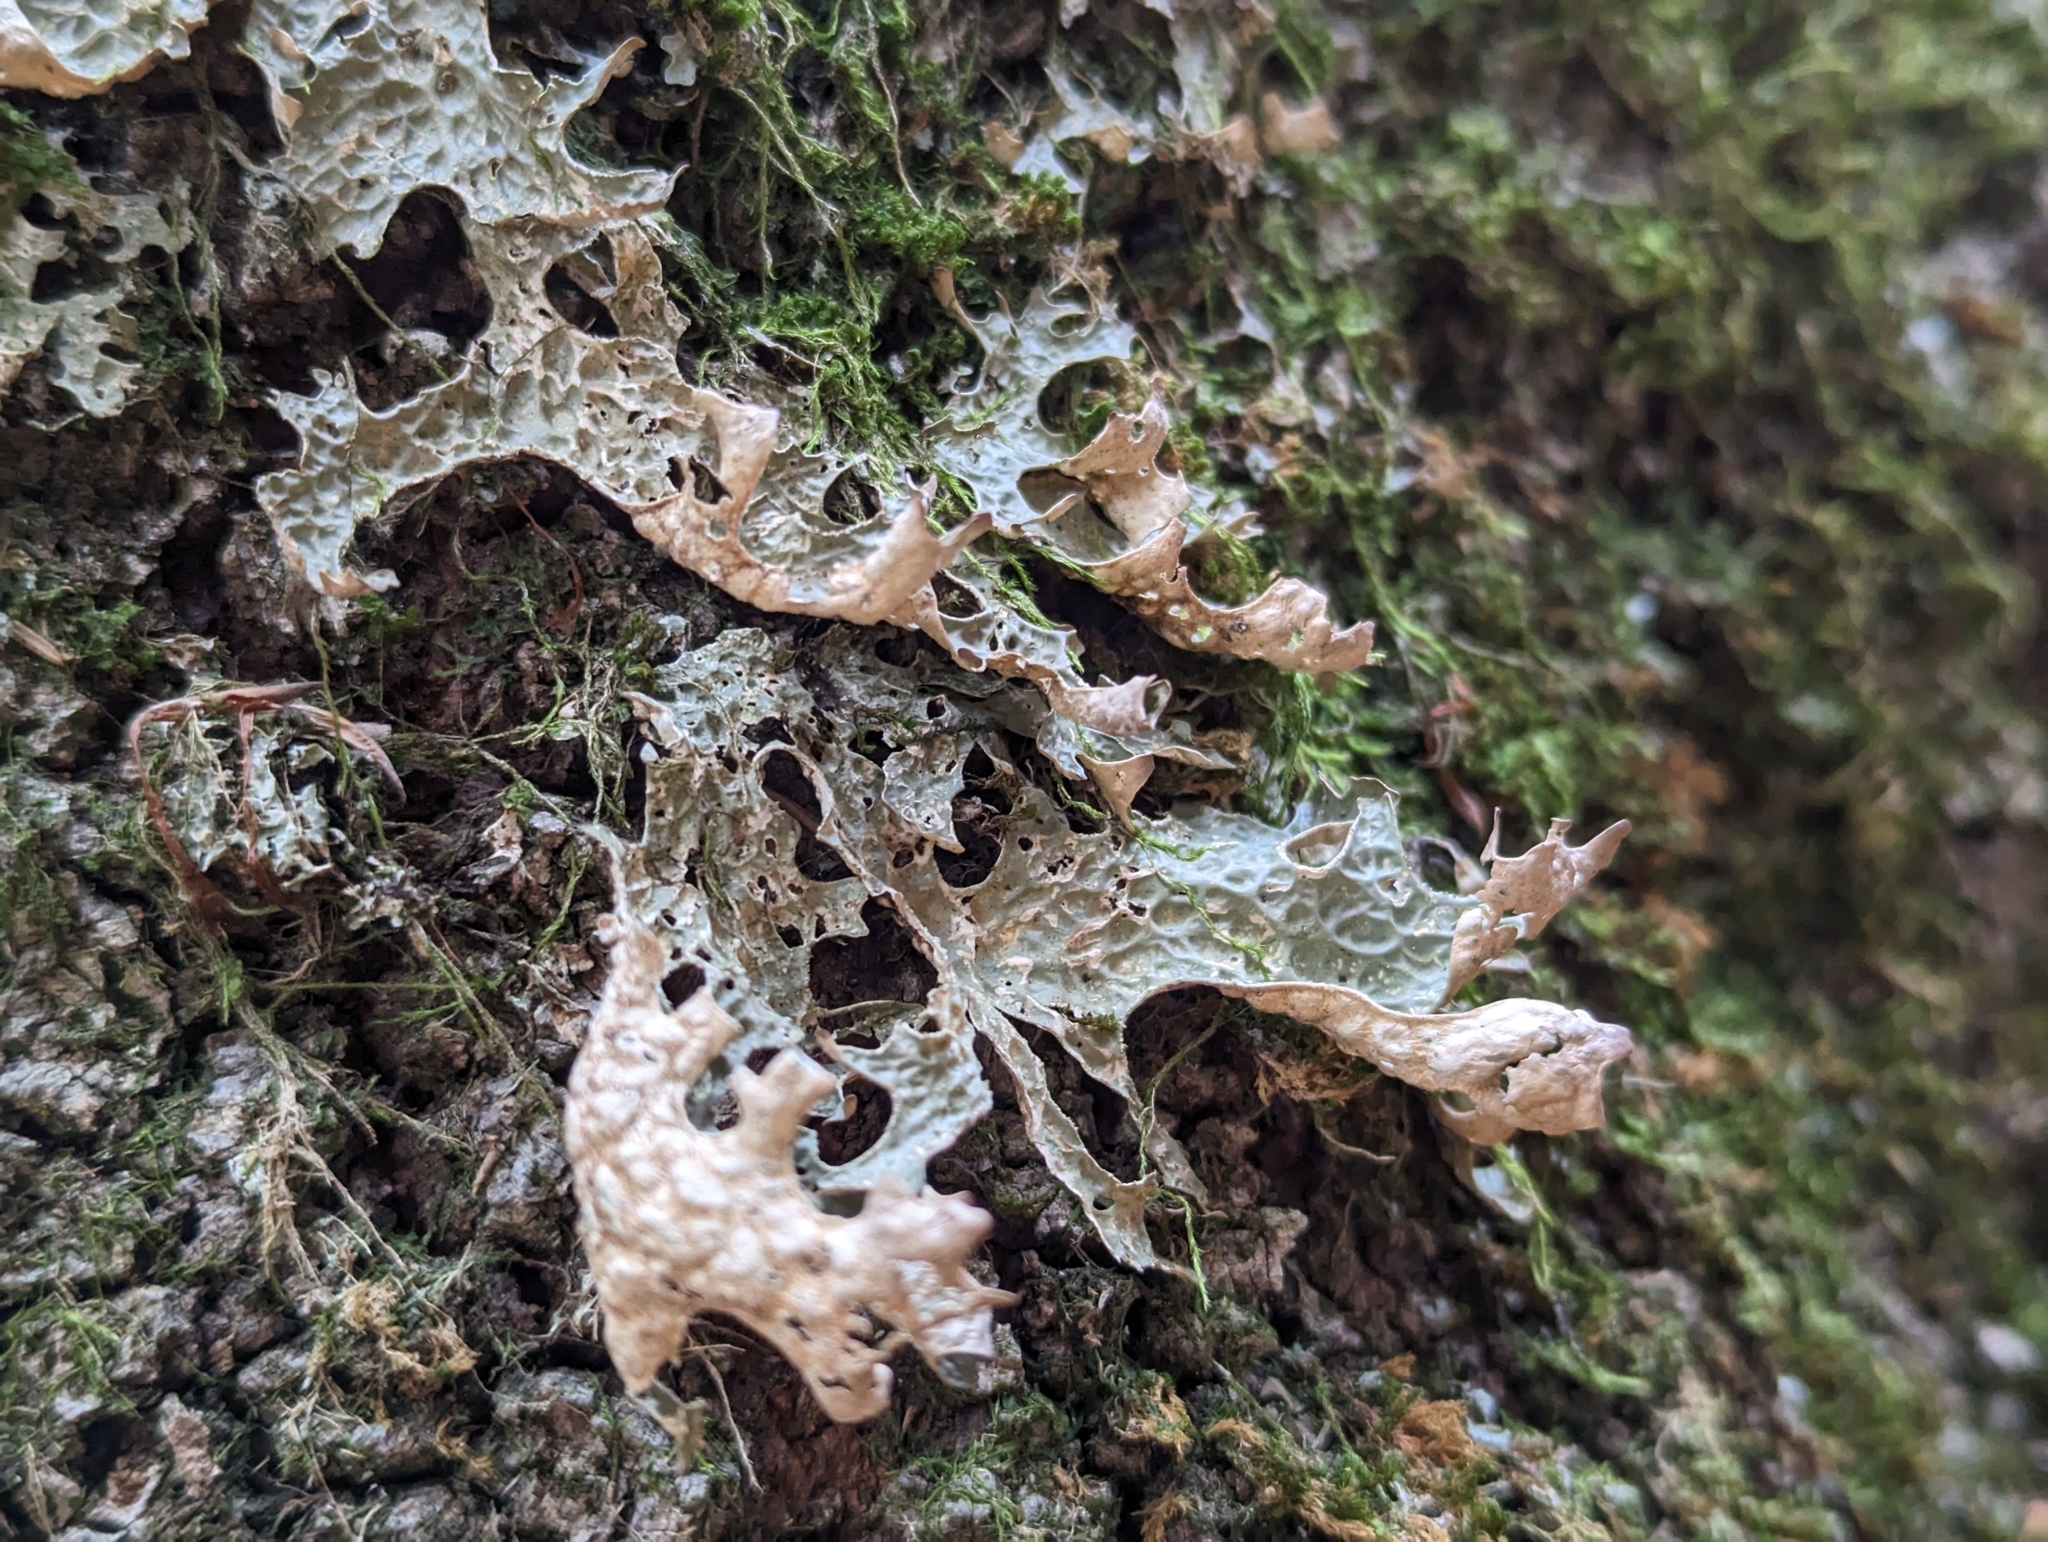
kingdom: Fungi
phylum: Ascomycota
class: Lecanoromycetes
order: Peltigerales
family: Lobariaceae
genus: Lobaria
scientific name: Lobaria pulmonaria
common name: Lungwort
